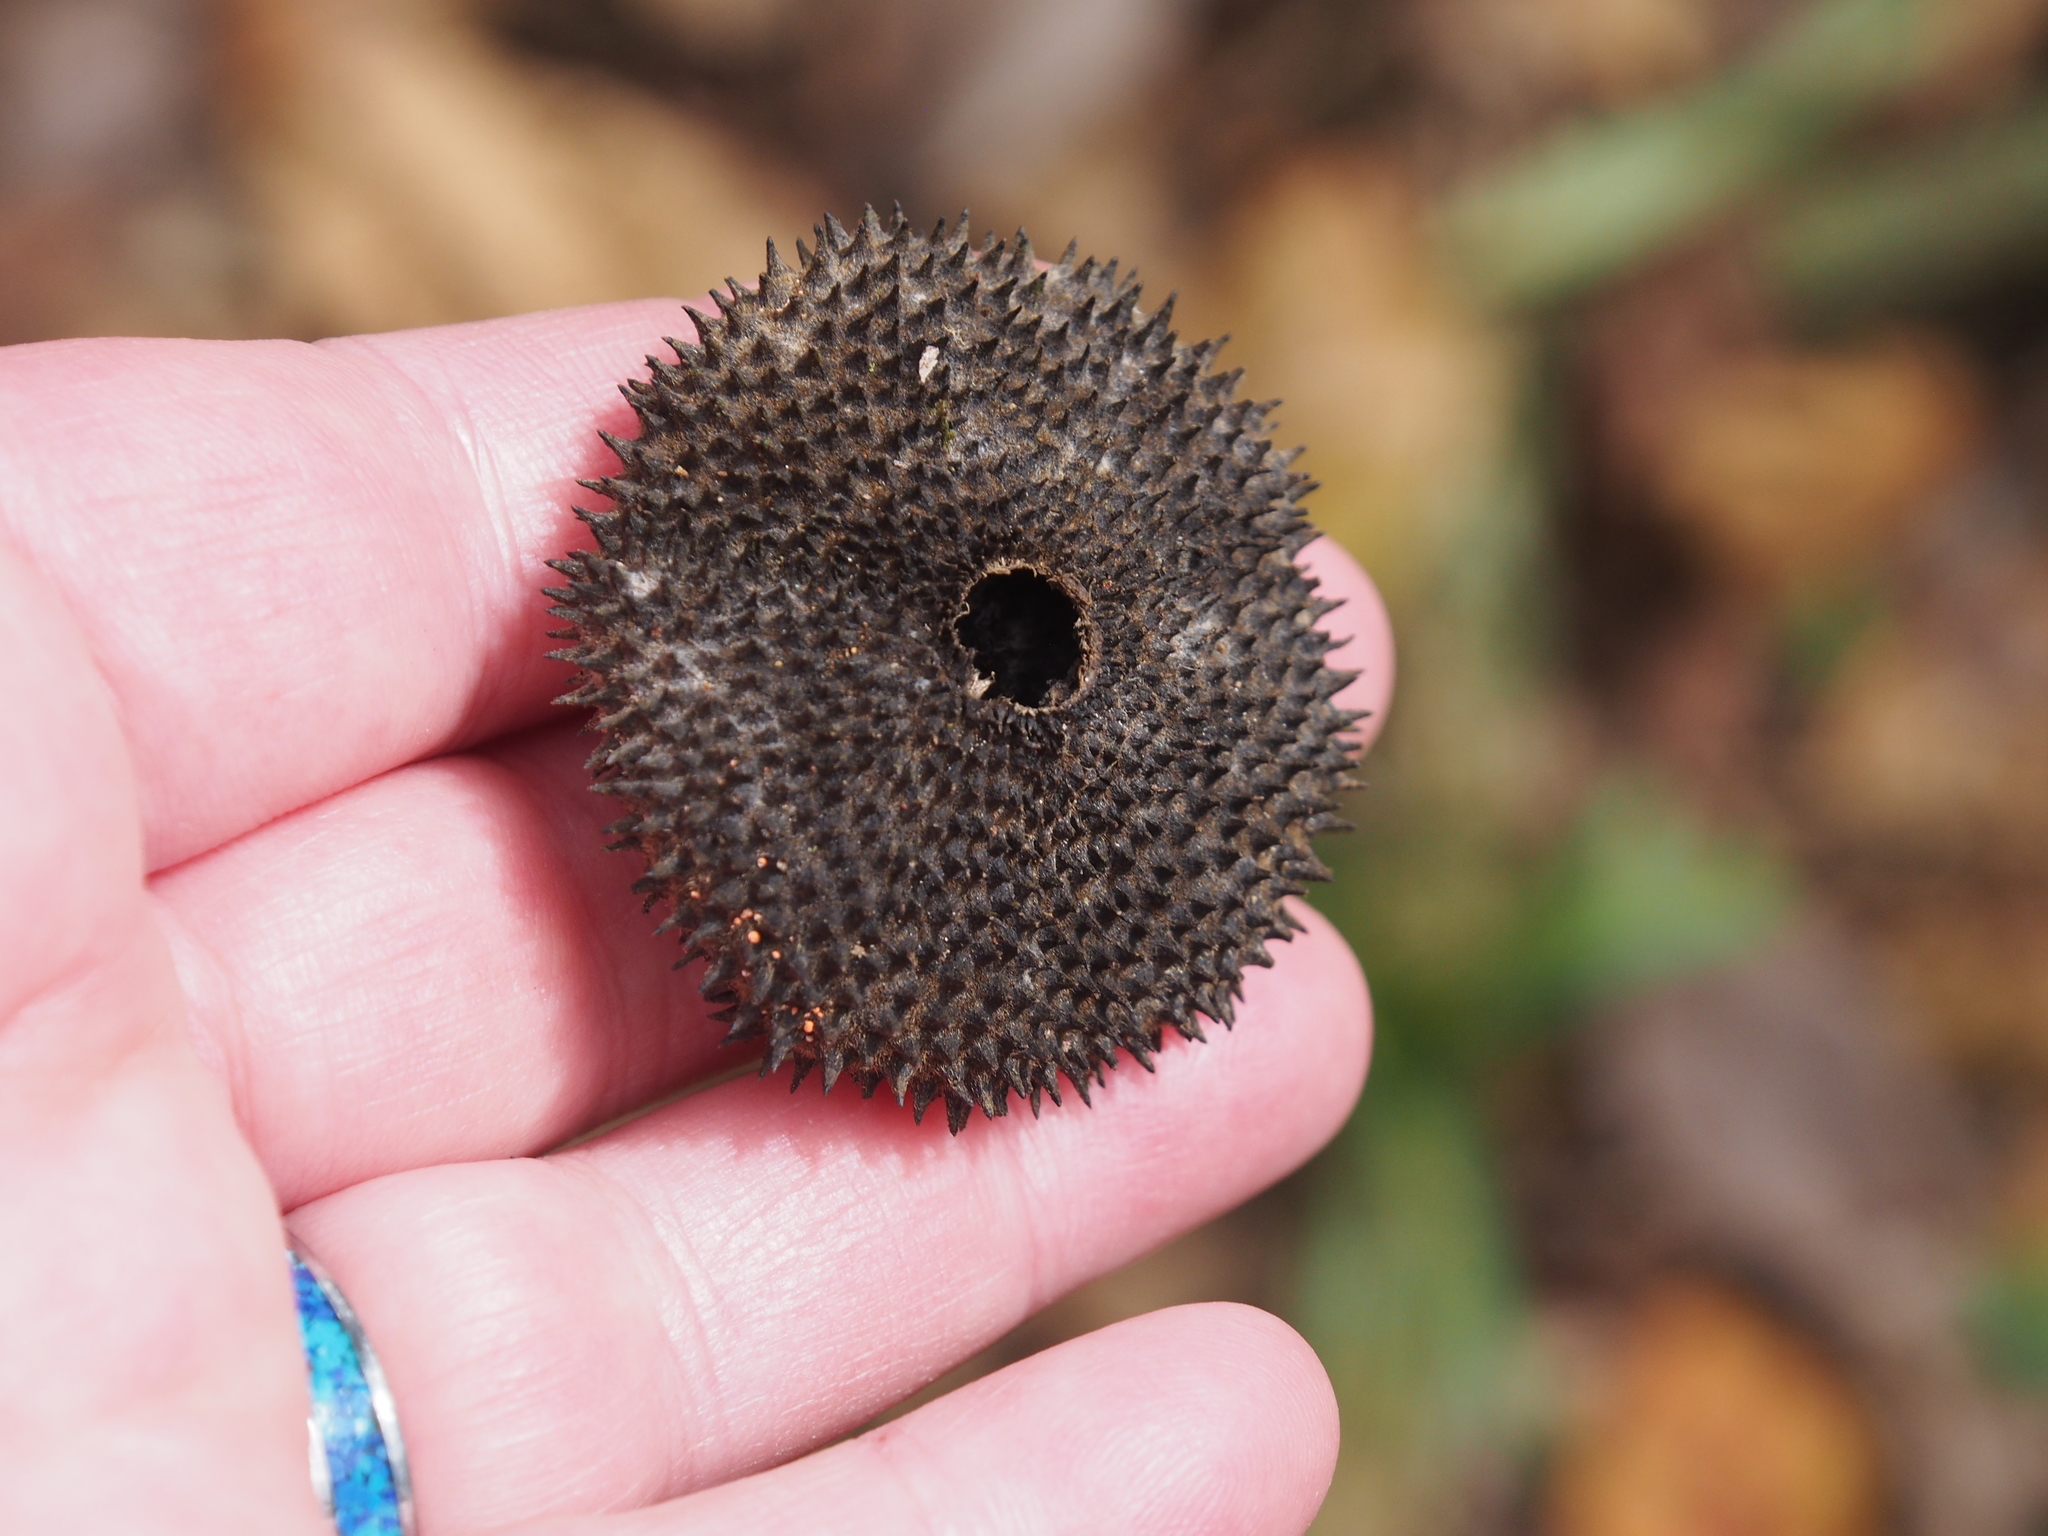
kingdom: Plantae
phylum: Tracheophyta
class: Magnoliopsida
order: Malvales
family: Malvaceae
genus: Apeiba
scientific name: Apeiba membranacea
